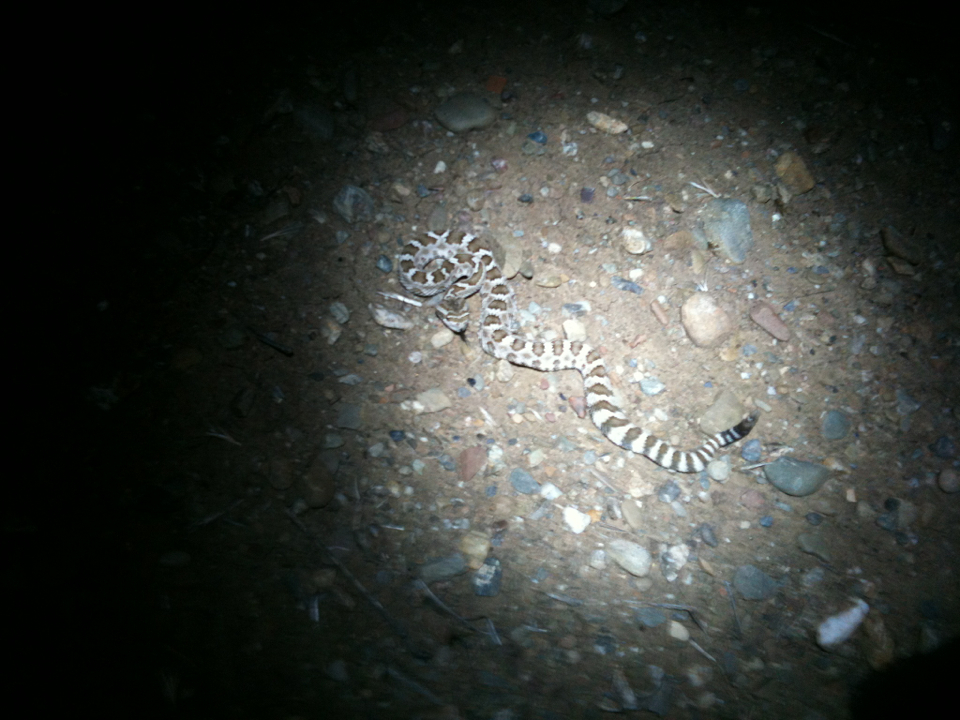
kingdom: Animalia
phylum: Chordata
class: Squamata
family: Viperidae
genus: Crotalus
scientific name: Crotalus oreganus
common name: Abyssus
